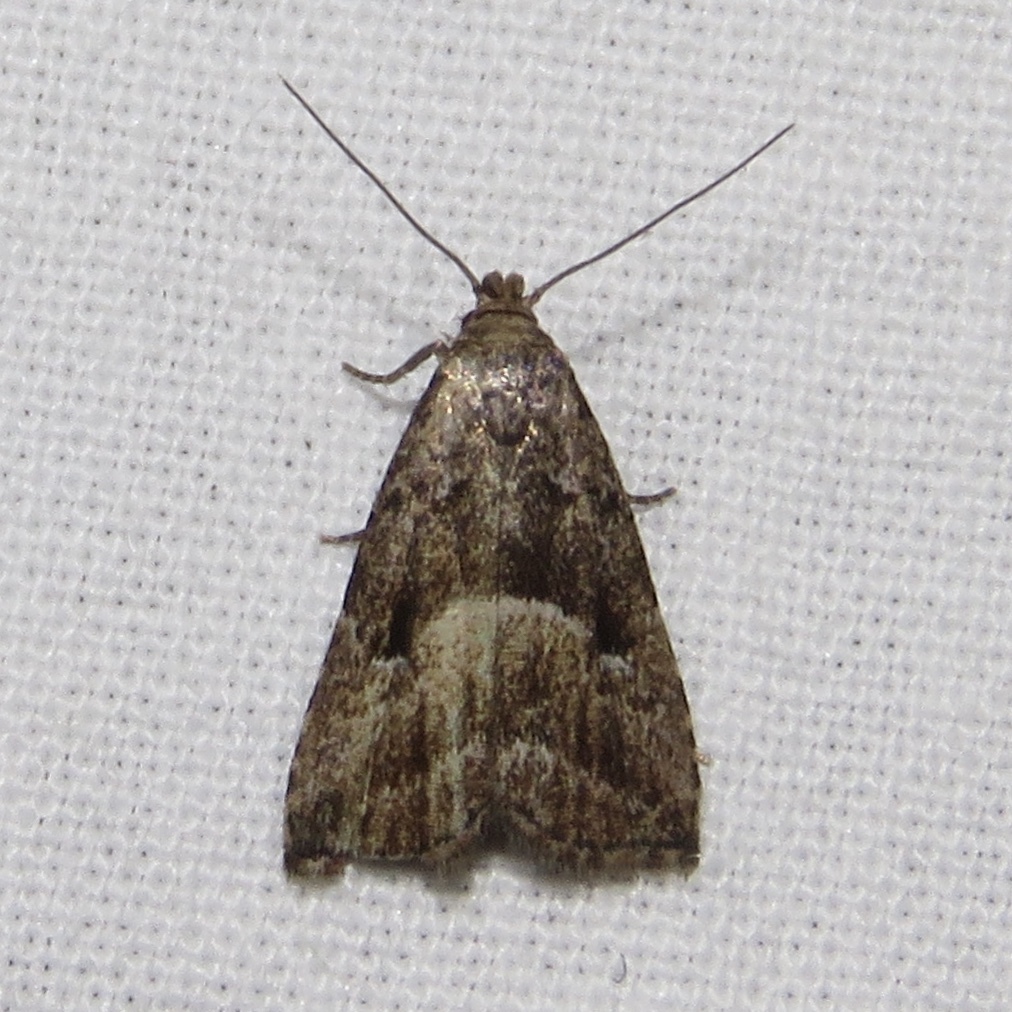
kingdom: Animalia
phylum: Arthropoda
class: Insecta
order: Lepidoptera
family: Erebidae
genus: Hypenodes
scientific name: Hypenodes caducus
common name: Large hypenodes moth
